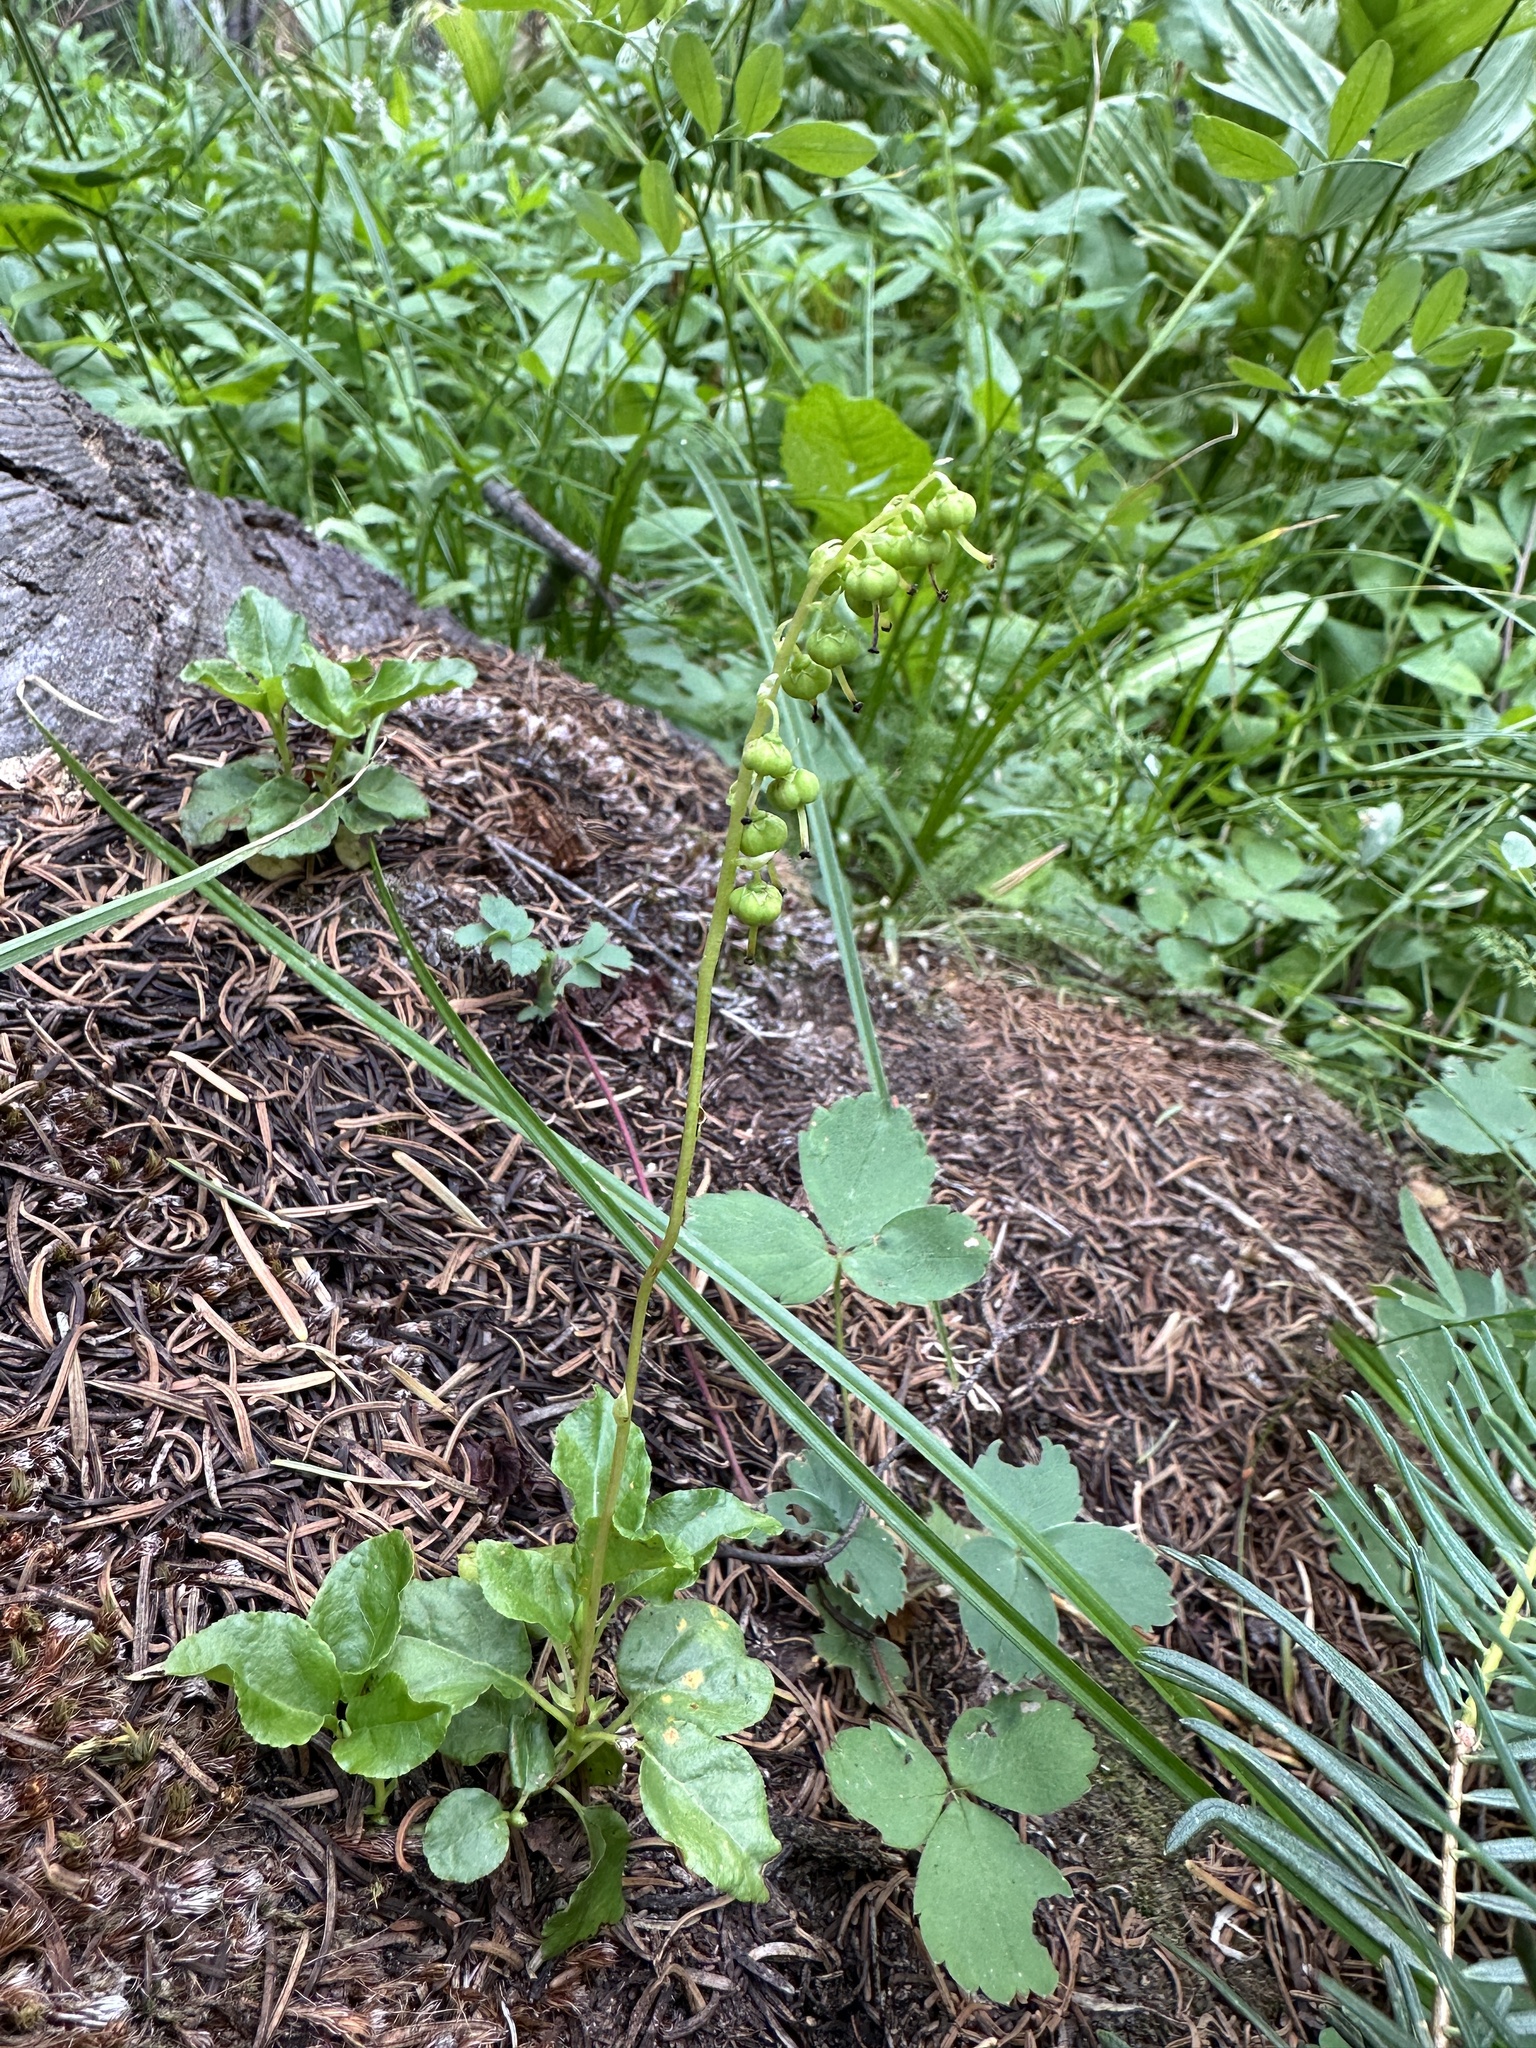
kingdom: Plantae
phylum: Tracheophyta
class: Magnoliopsida
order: Ericales
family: Ericaceae
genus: Orthilia
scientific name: Orthilia secunda
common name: One-sided orthilia
